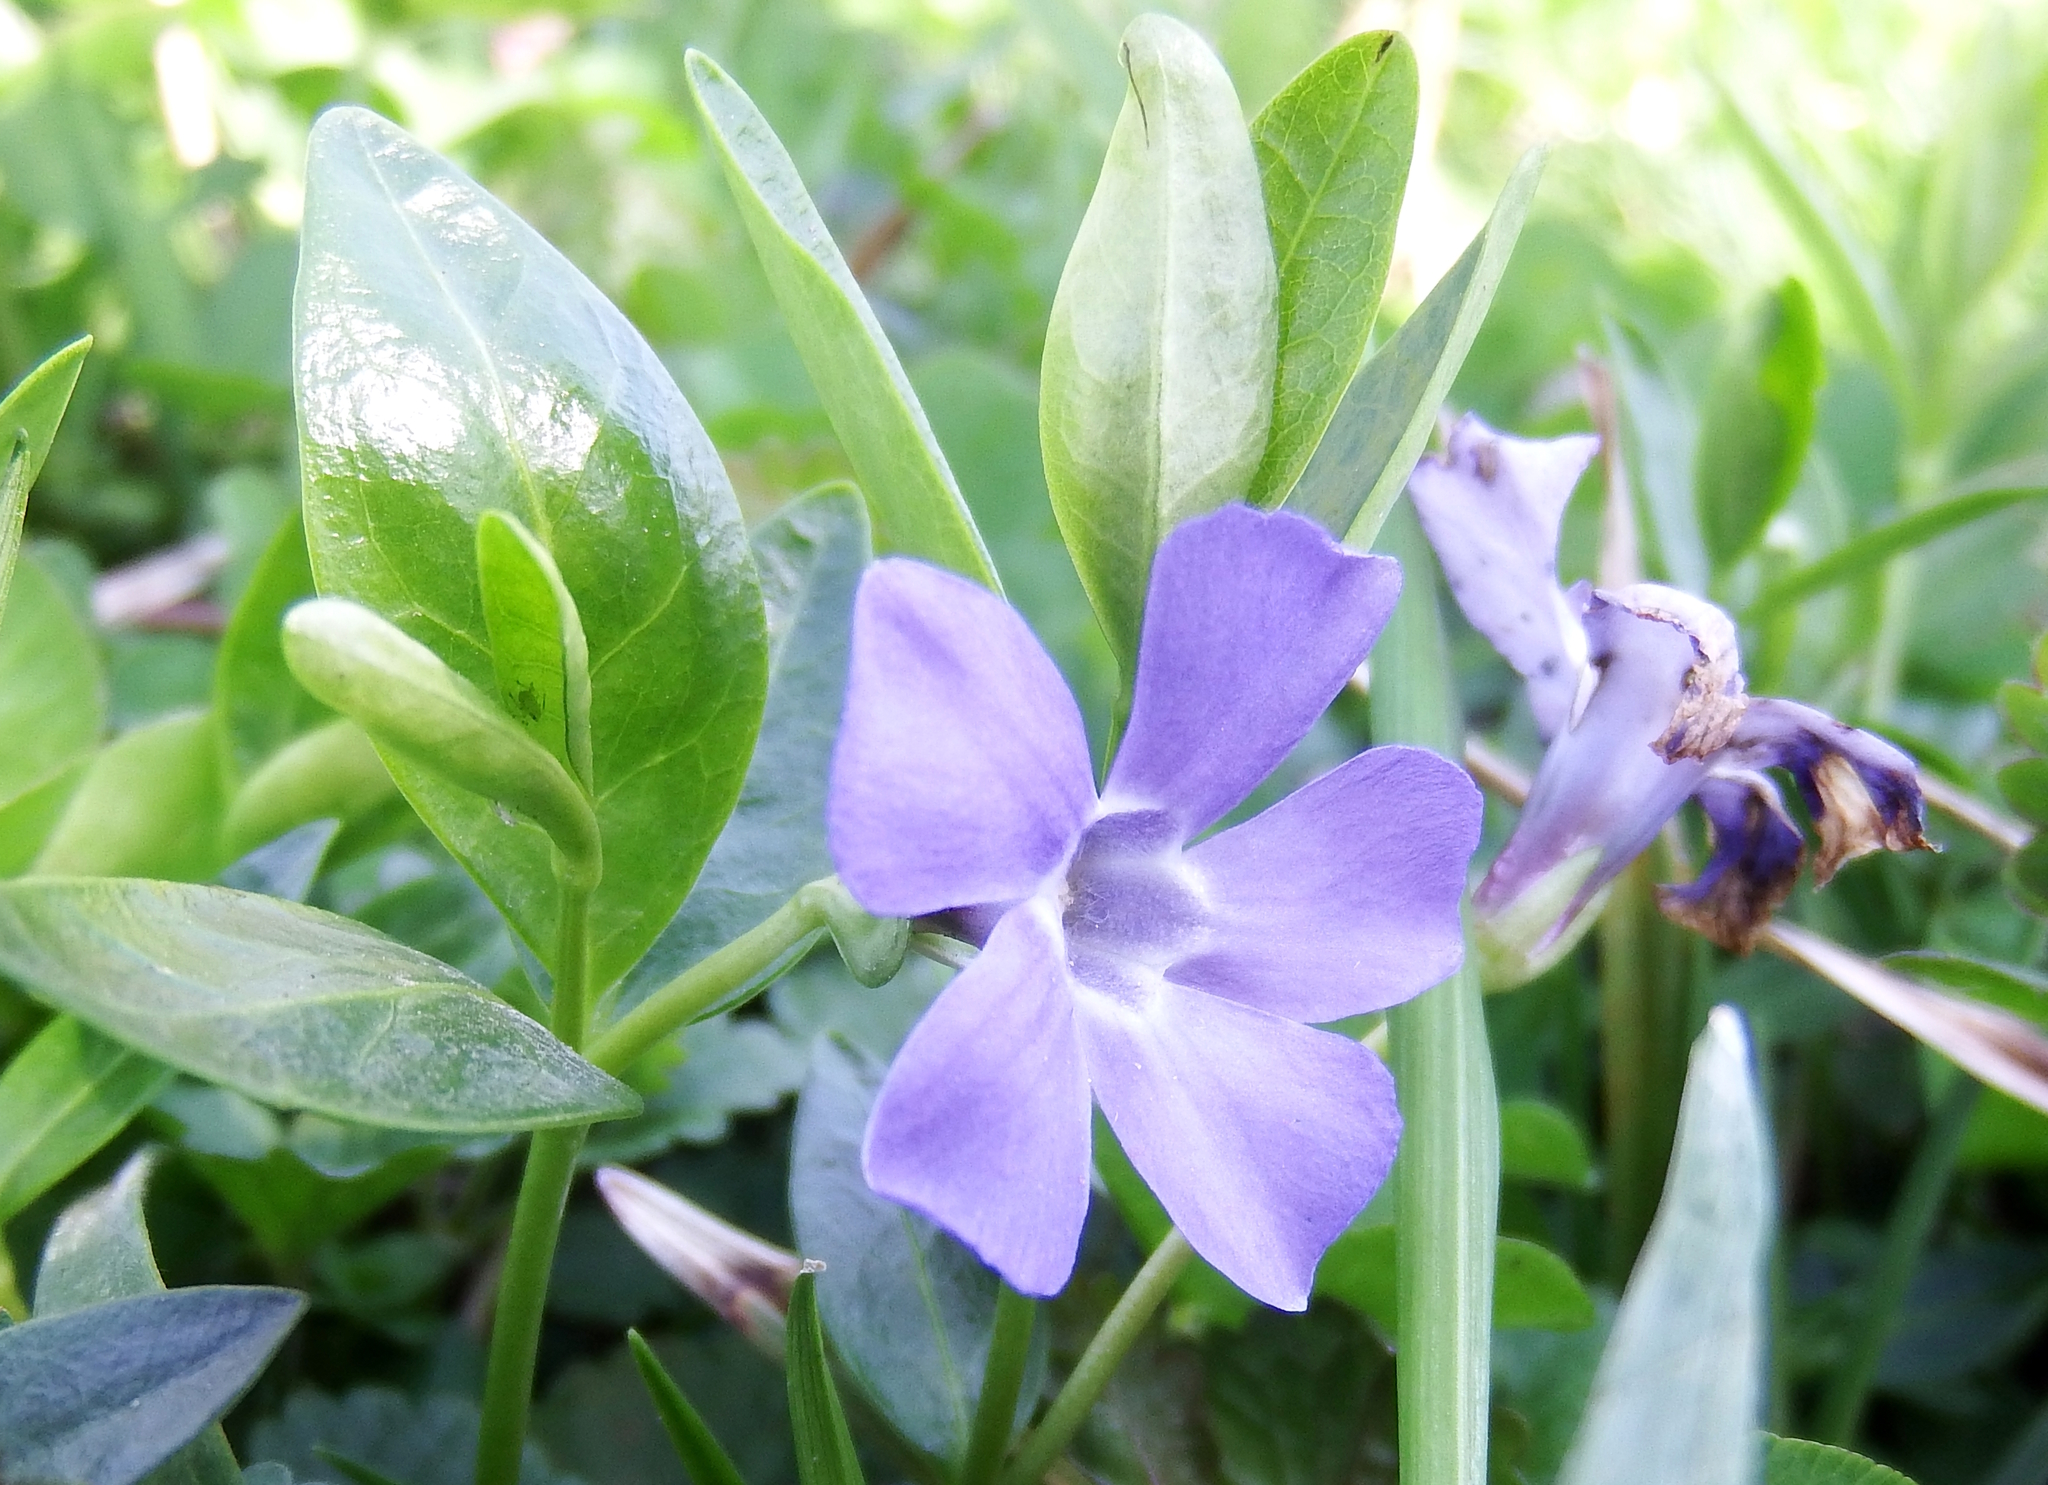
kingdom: Plantae
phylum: Tracheophyta
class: Magnoliopsida
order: Gentianales
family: Apocynaceae
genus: Vinca
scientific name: Vinca minor
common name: Lesser periwinkle
